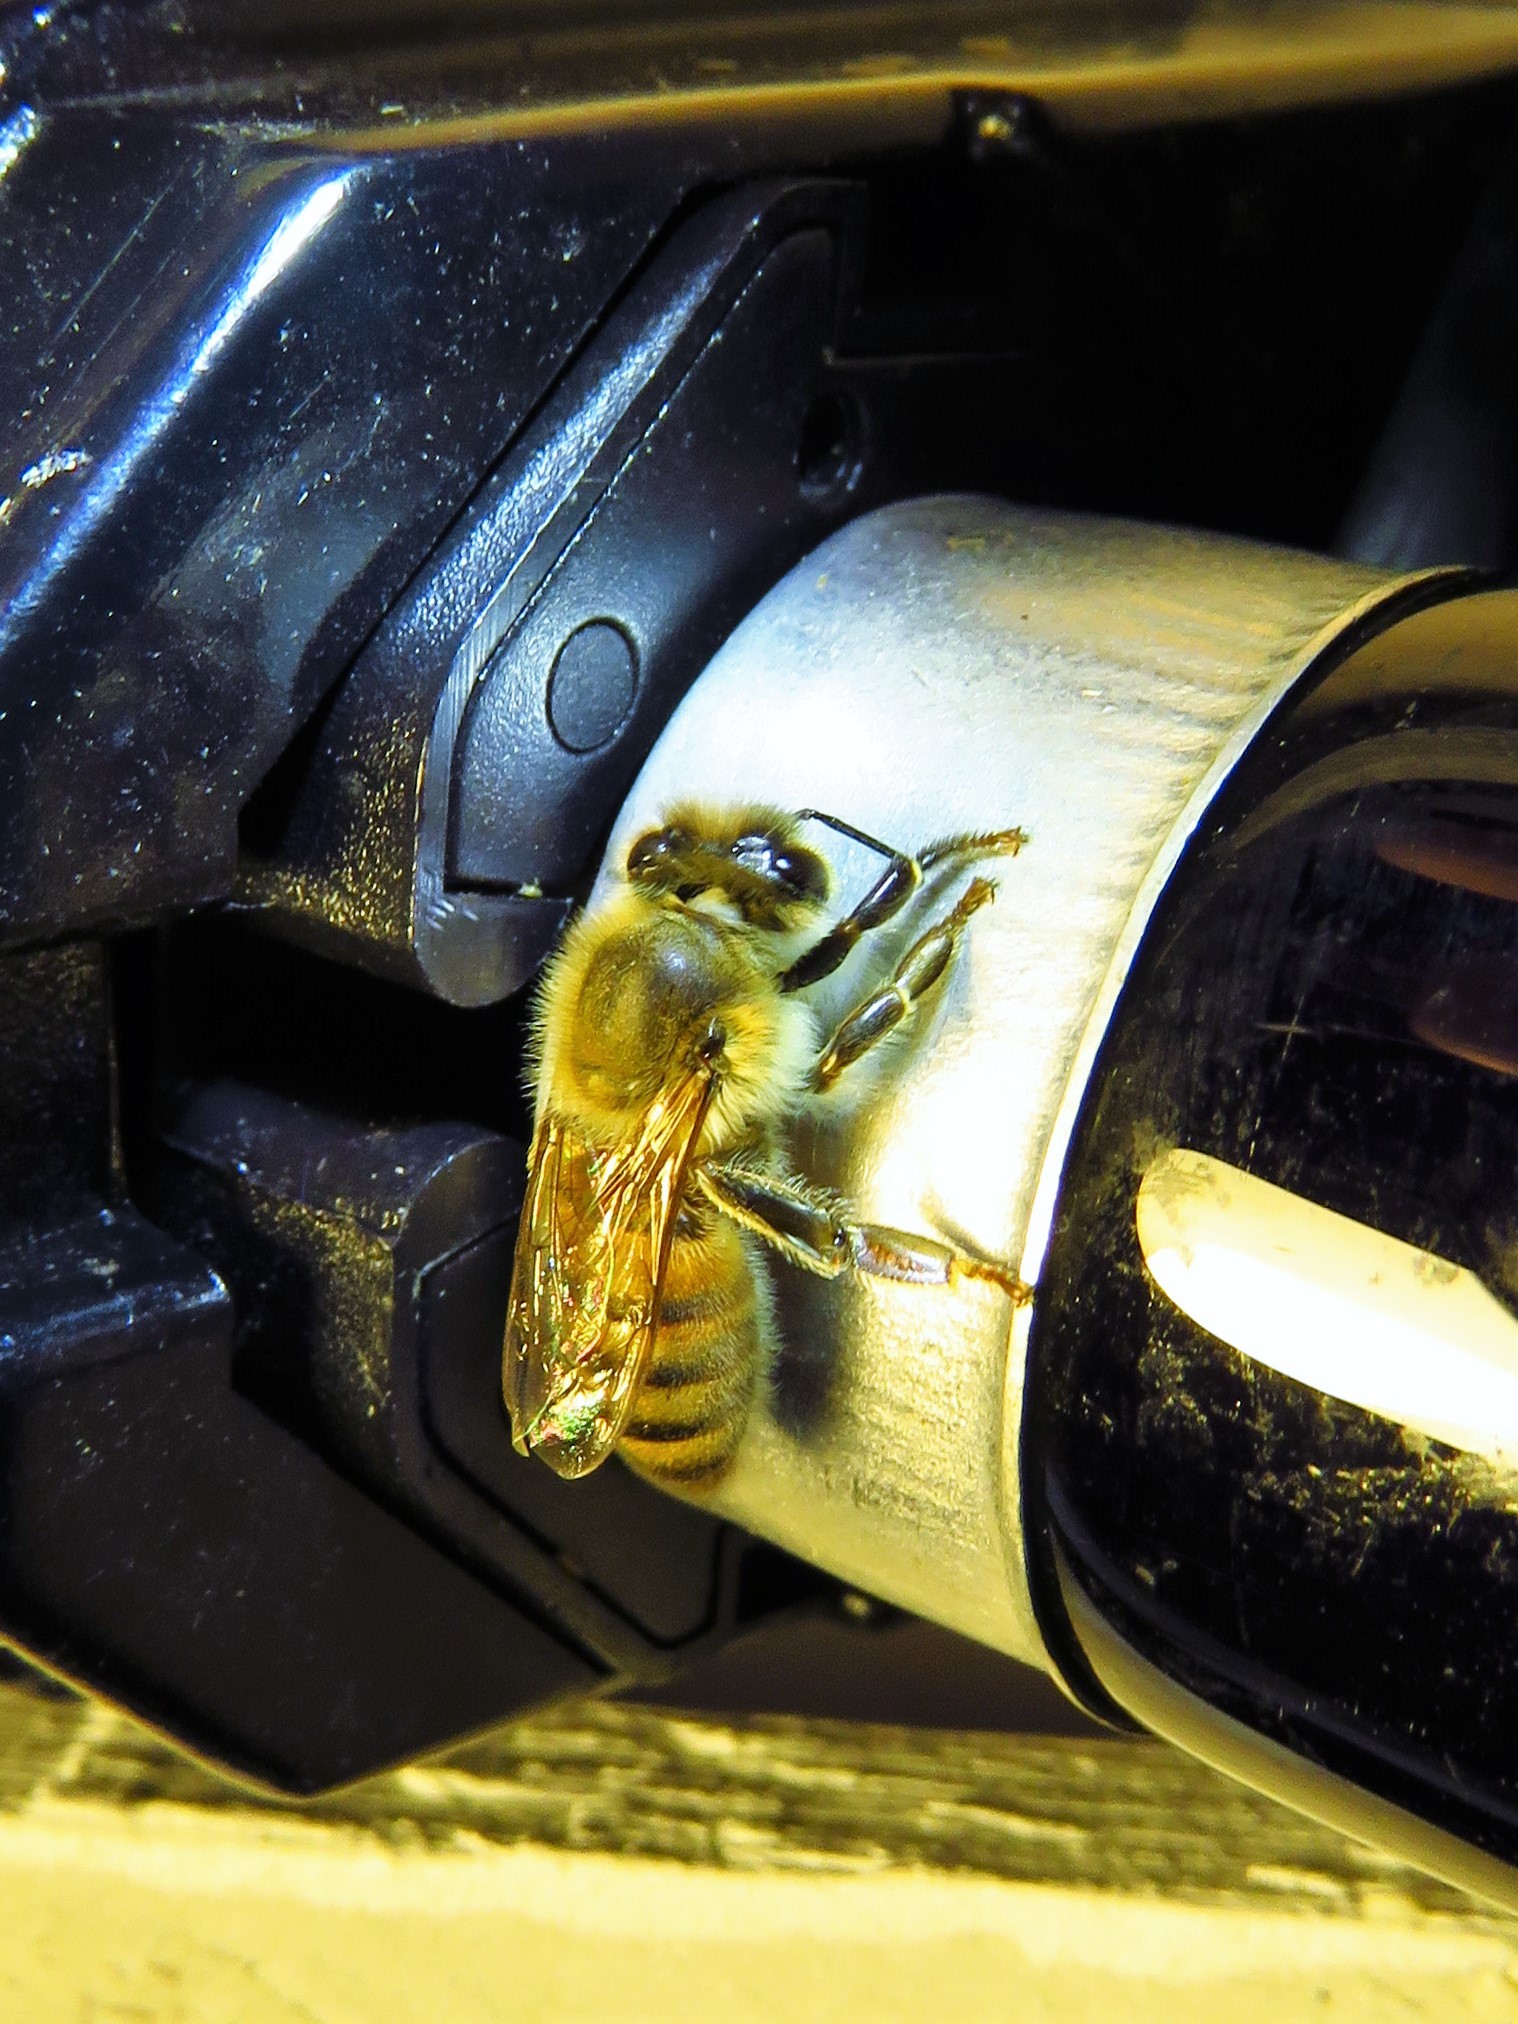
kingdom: Animalia
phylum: Arthropoda
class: Insecta
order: Hymenoptera
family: Apidae
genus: Apis
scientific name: Apis mellifera
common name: Honey bee
